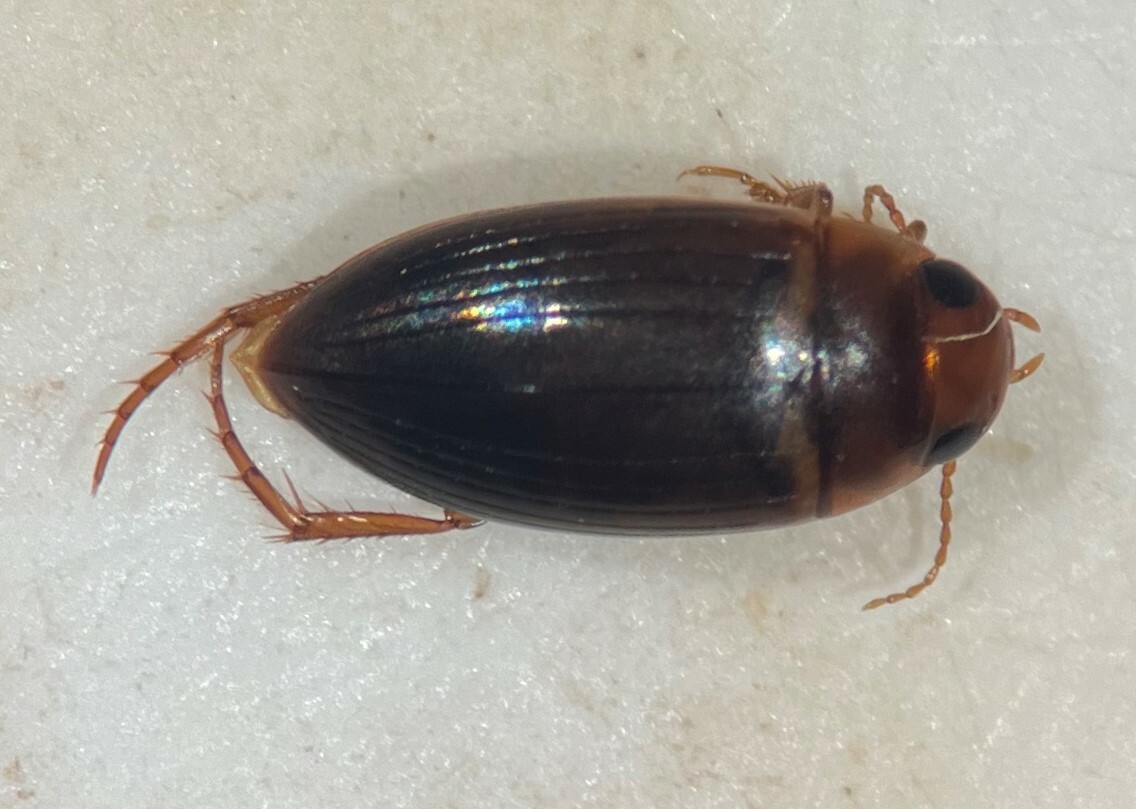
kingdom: Animalia
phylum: Arthropoda
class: Insecta
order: Coleoptera
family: Dytiscidae
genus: Copelatus
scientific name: Copelatus debilis
